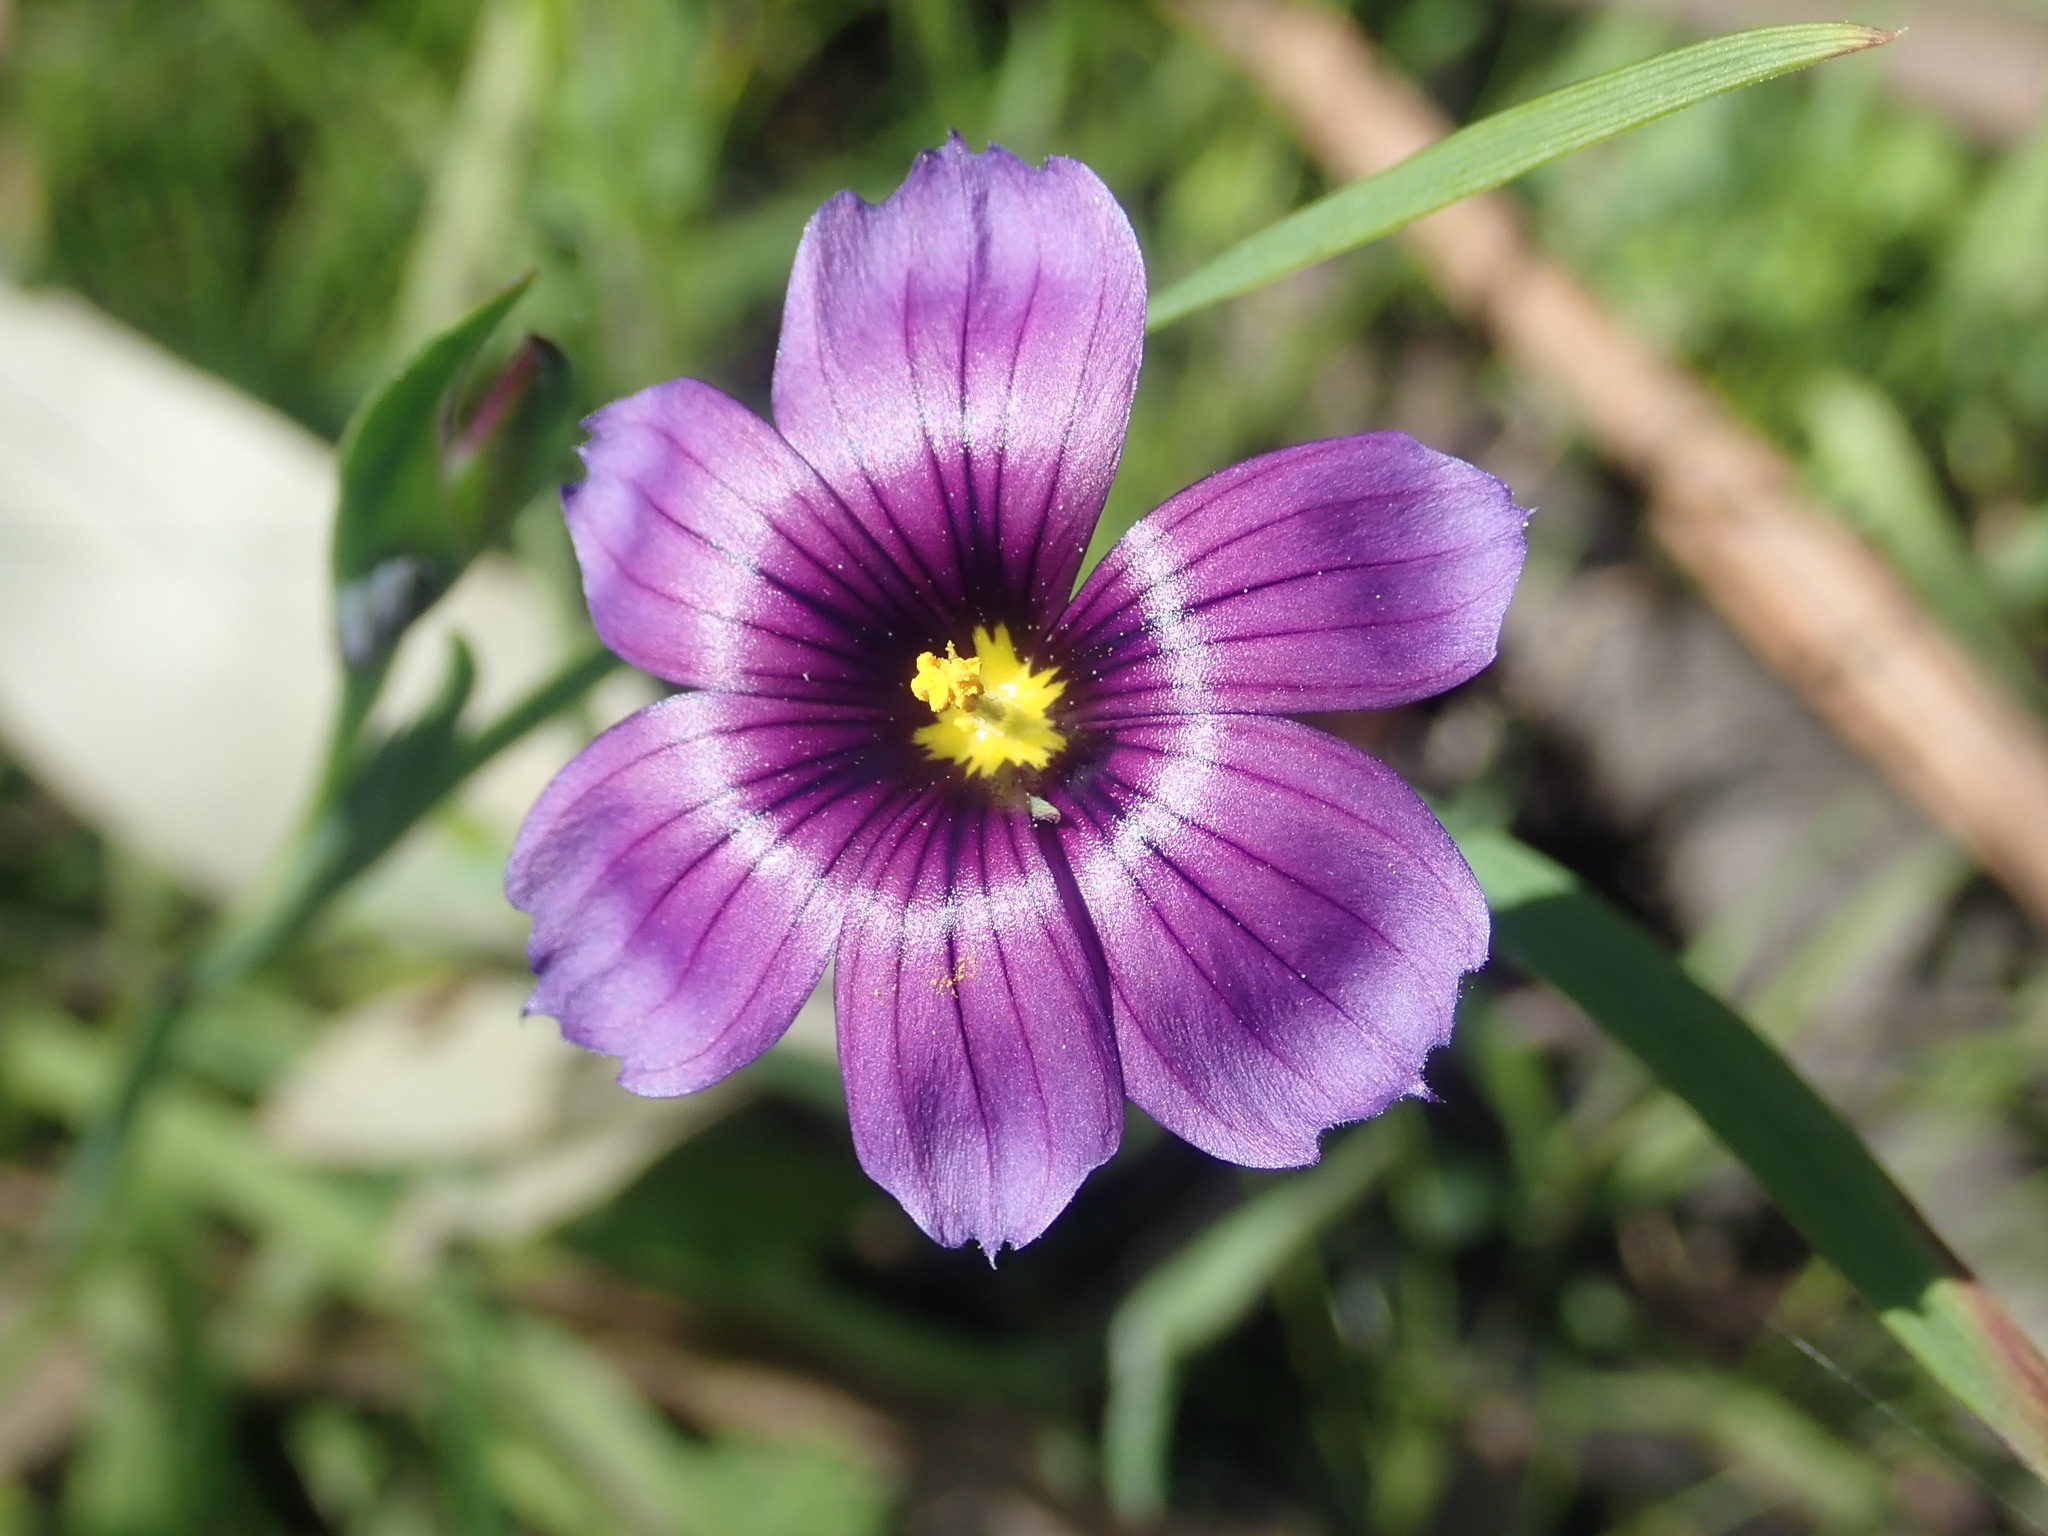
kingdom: Plantae
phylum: Tracheophyta
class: Liliopsida
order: Asparagales
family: Iridaceae
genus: Sisyrinchium
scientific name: Sisyrinchium bellum
